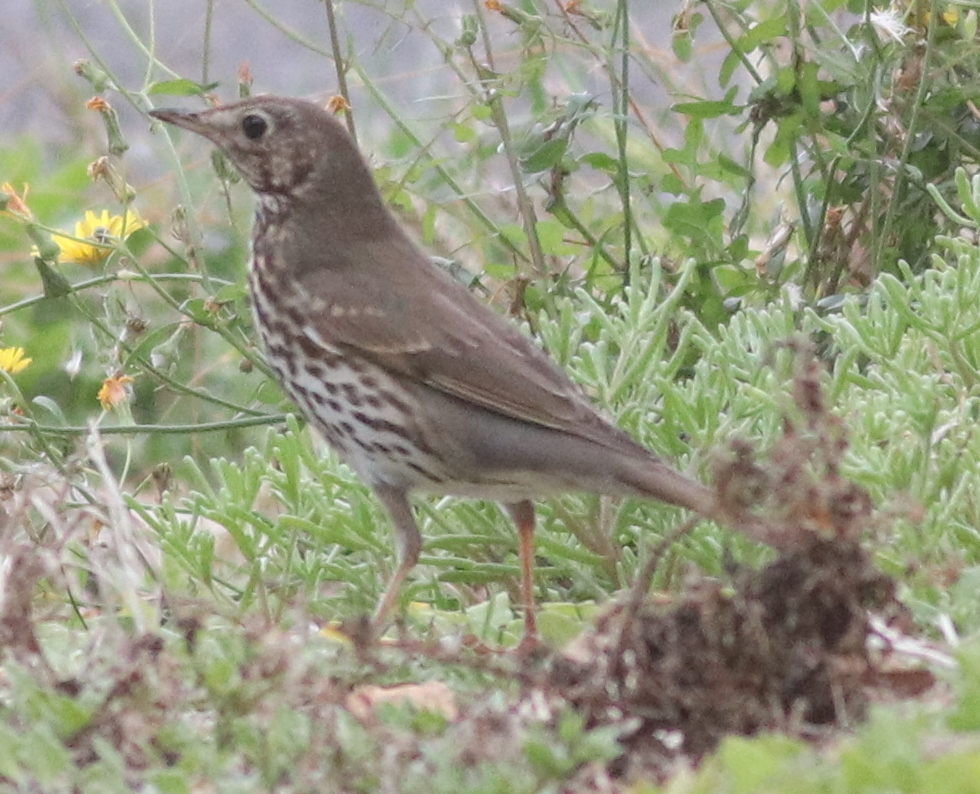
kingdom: Animalia
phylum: Chordata
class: Aves
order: Passeriformes
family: Turdidae
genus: Turdus
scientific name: Turdus philomelos
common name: Song thrush
